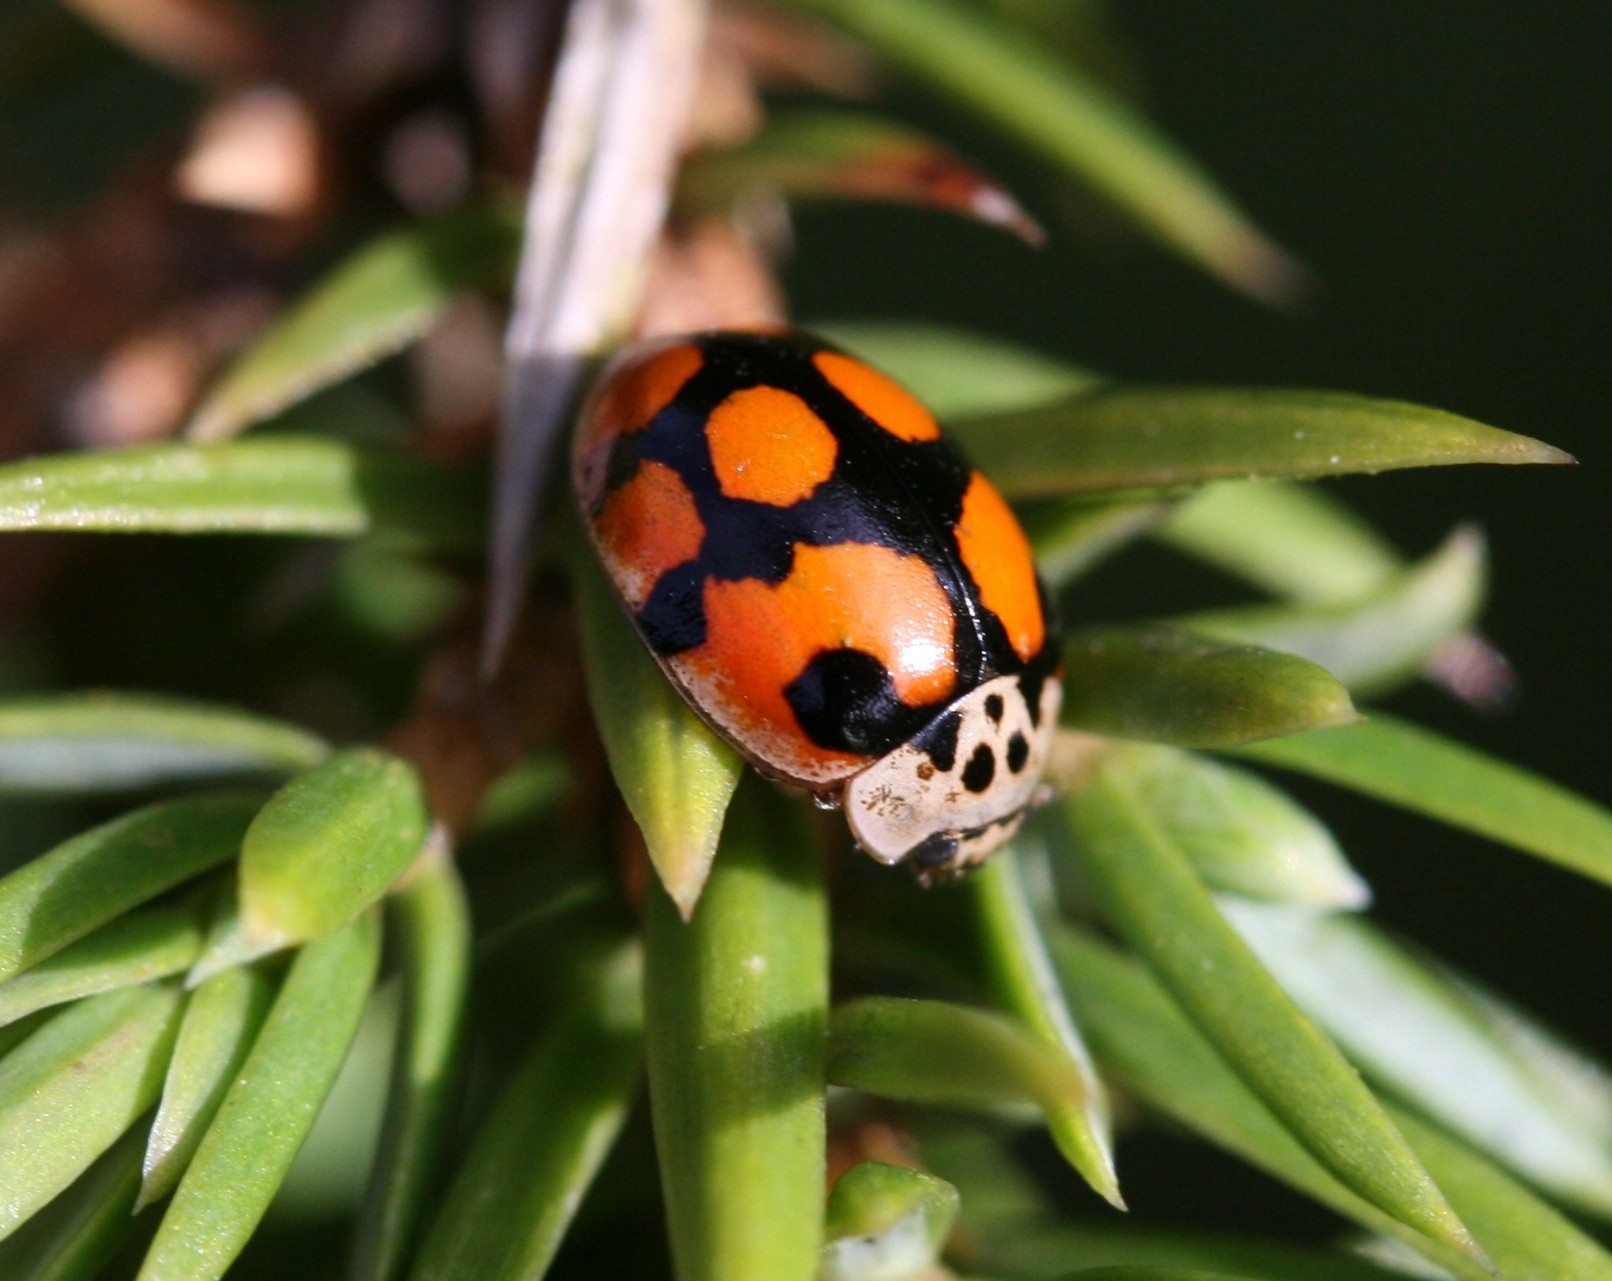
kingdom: Animalia
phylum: Arthropoda
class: Insecta
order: Coleoptera
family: Coccinellidae
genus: Adalia
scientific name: Adalia decempunctata
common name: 10-spot ladybird
